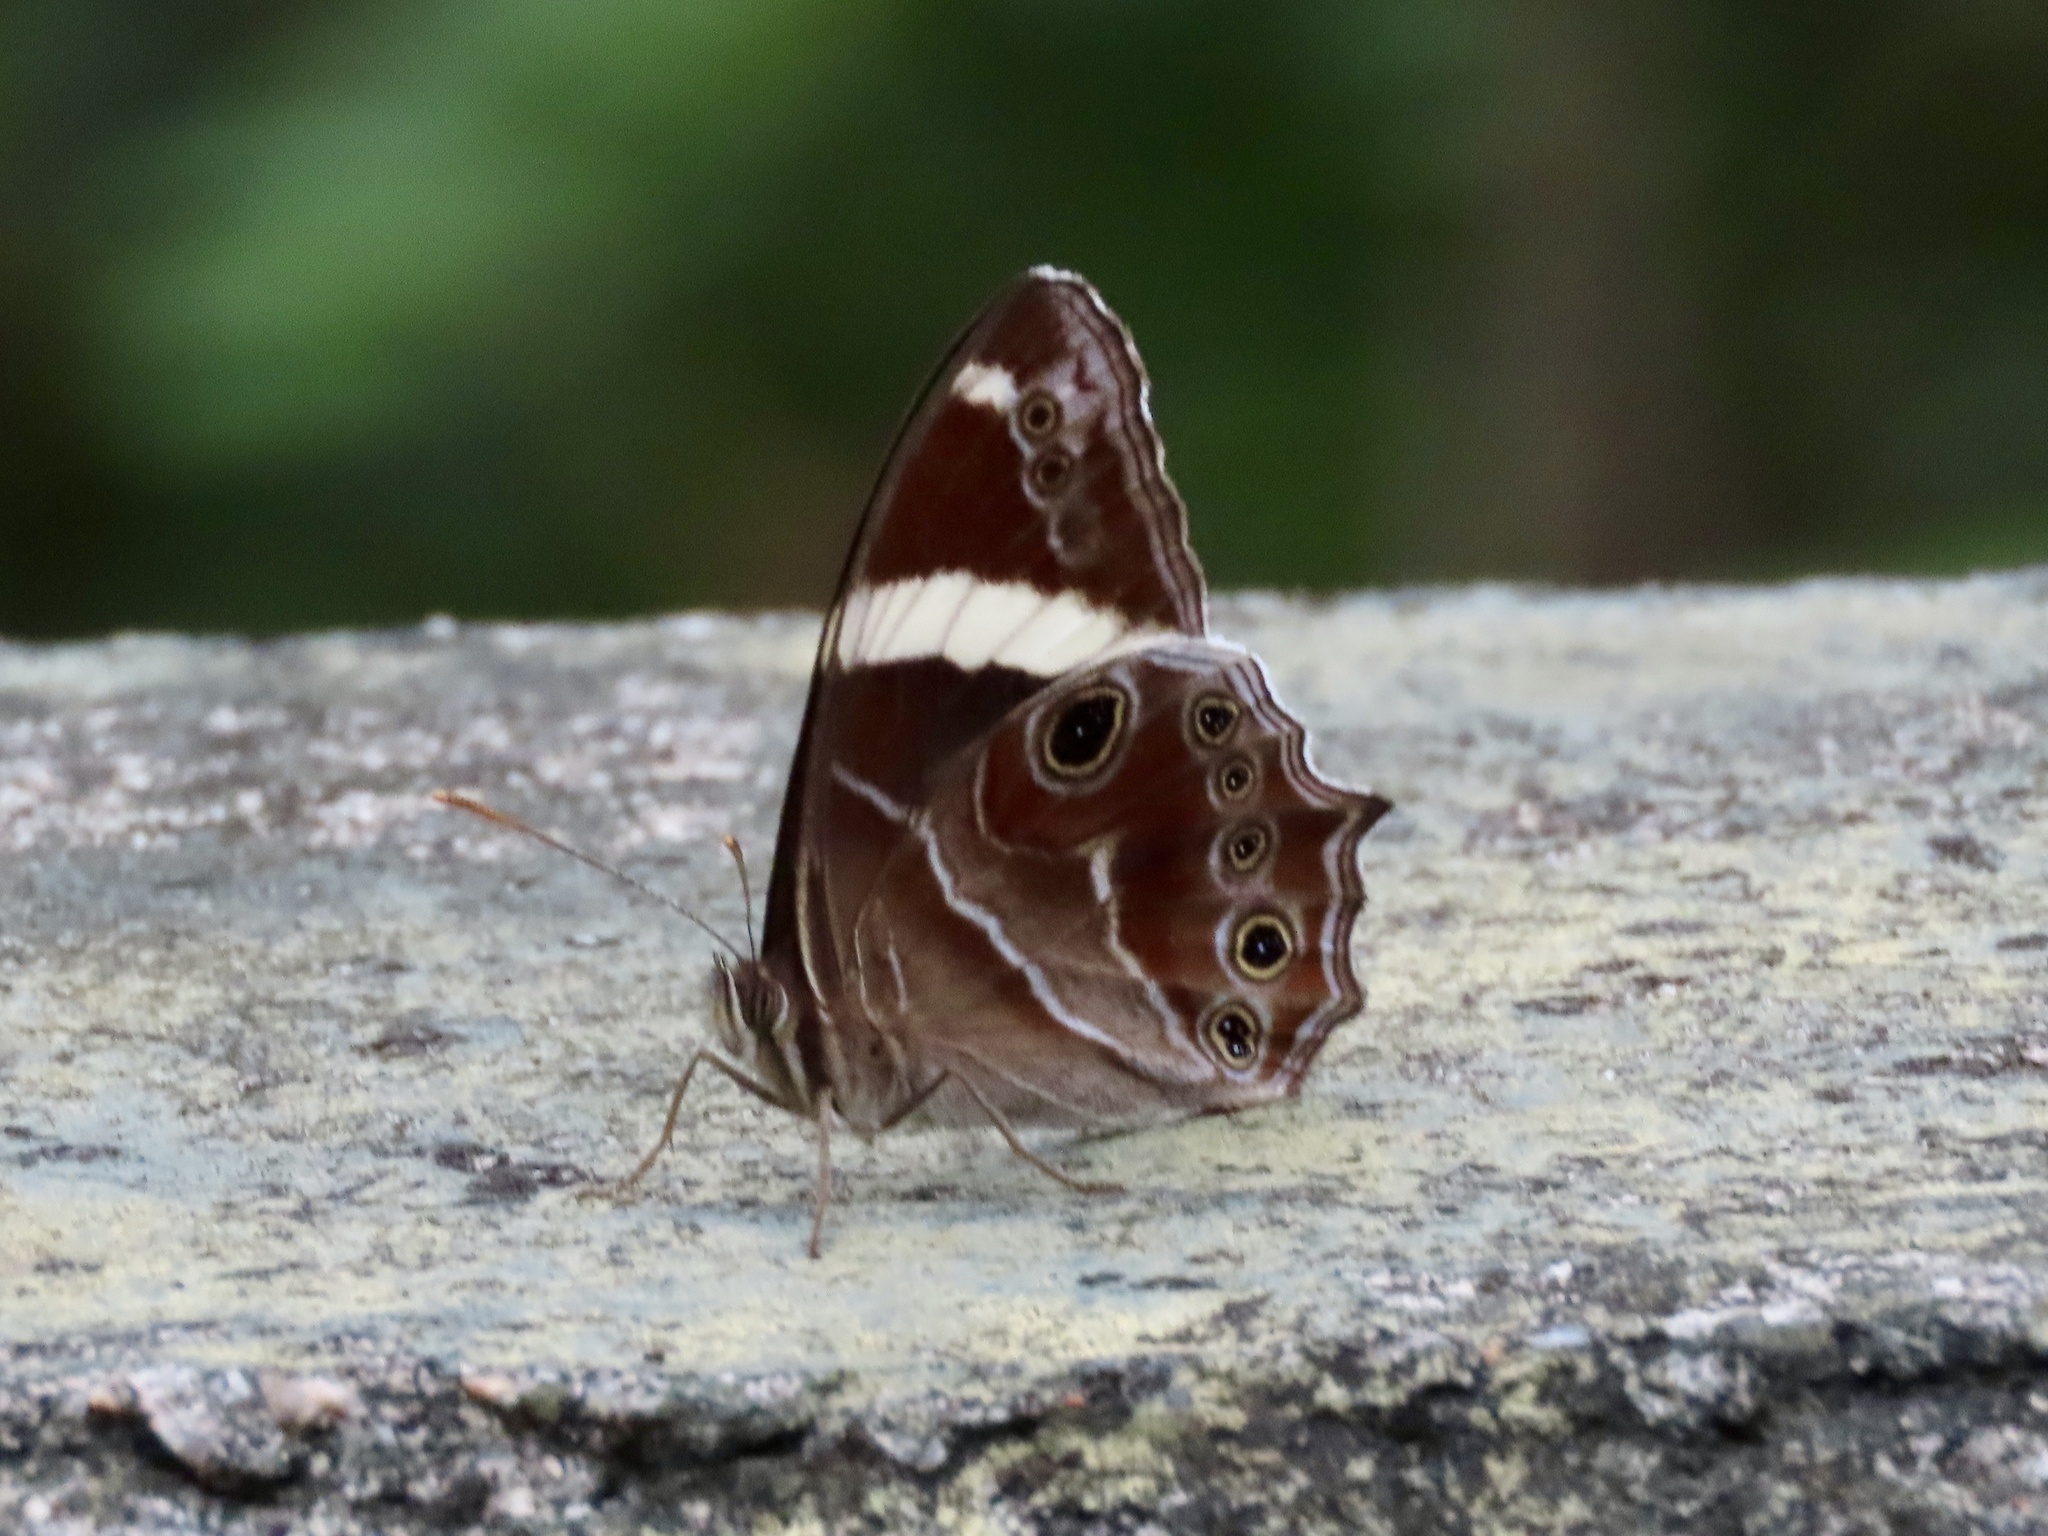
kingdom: Animalia
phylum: Arthropoda
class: Insecta
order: Lepidoptera
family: Nymphalidae
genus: Lethe
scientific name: Lethe confusa
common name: Banded treebrown
